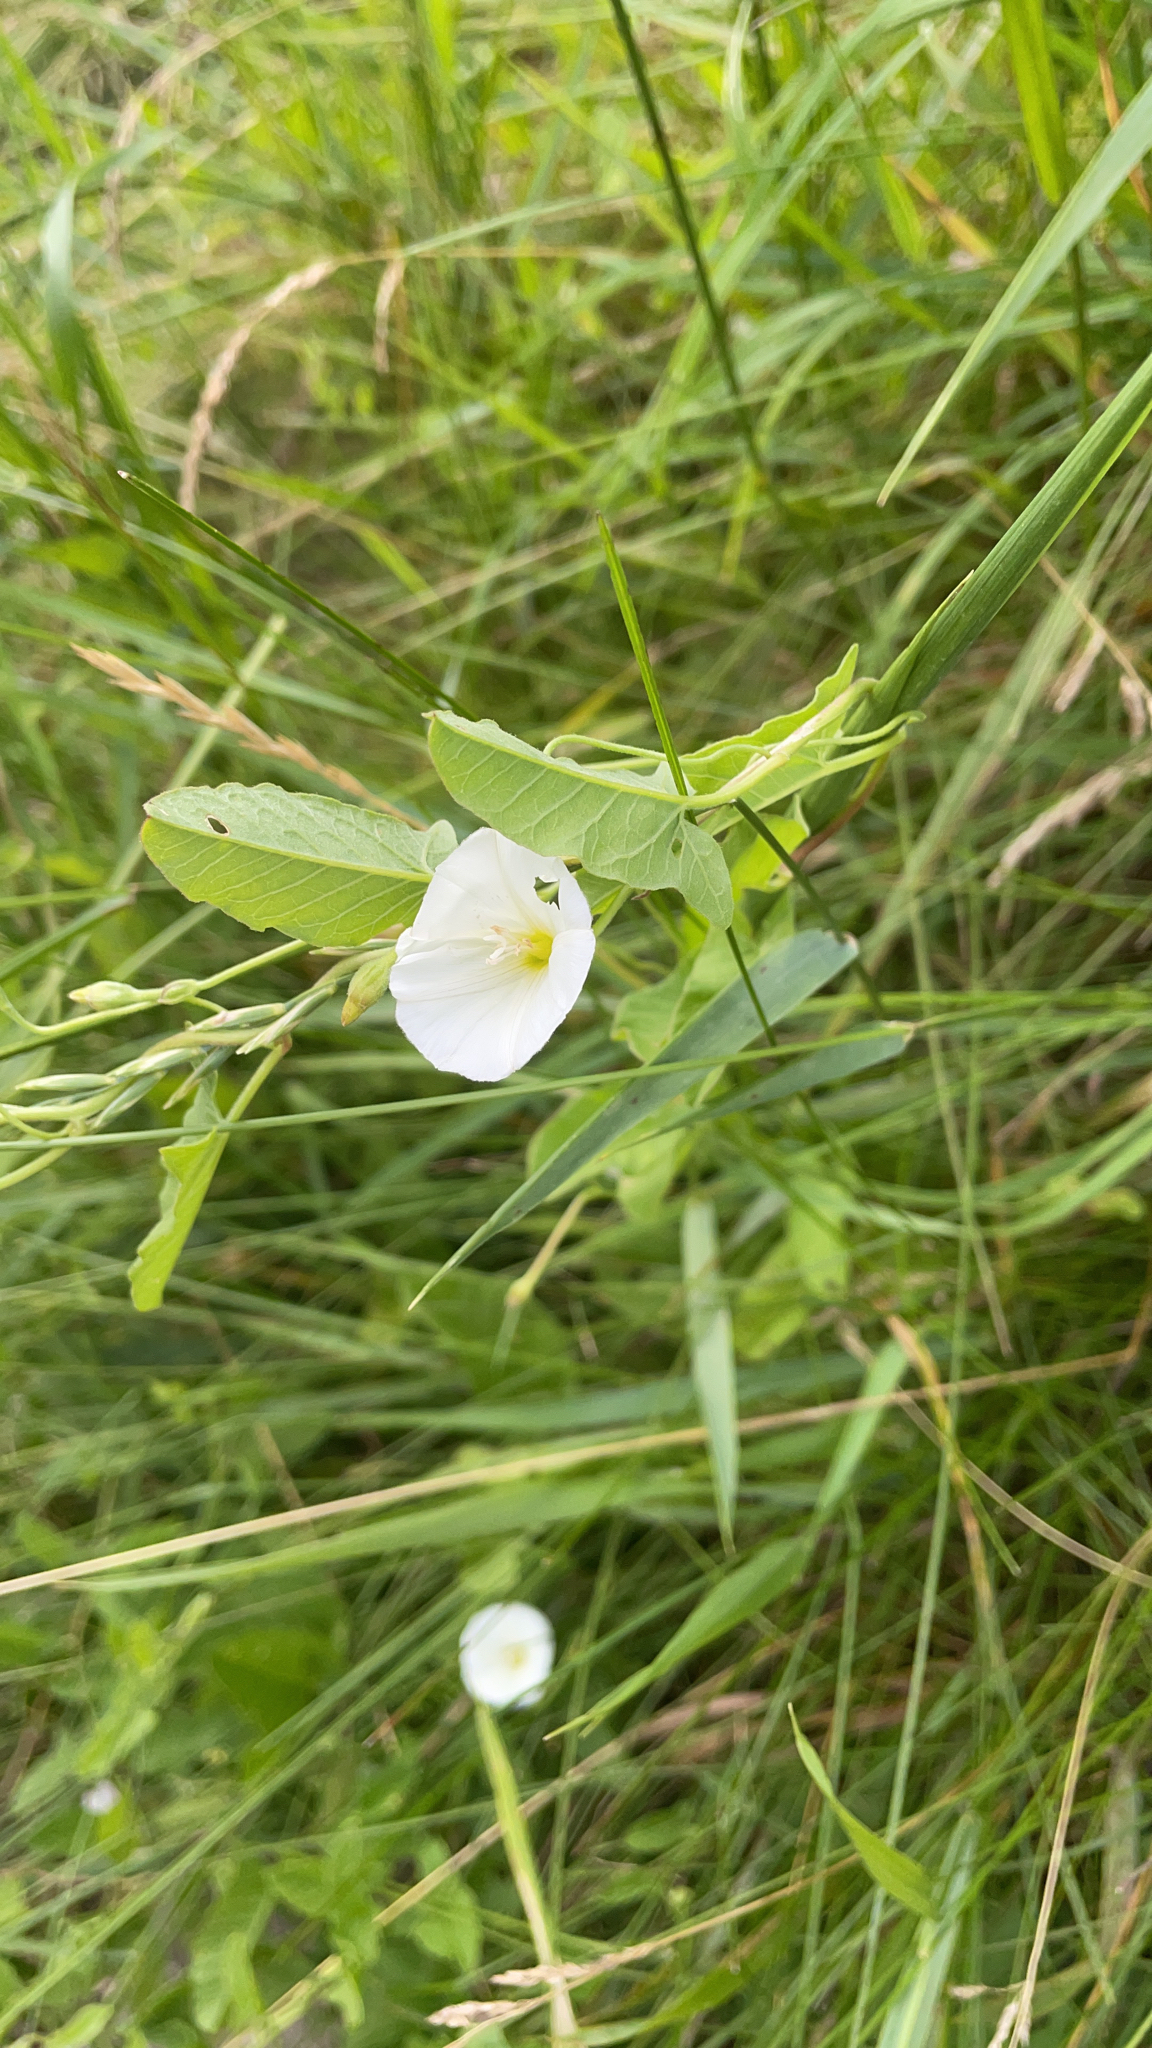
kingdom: Plantae
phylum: Tracheophyta
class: Magnoliopsida
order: Solanales
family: Convolvulaceae
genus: Convolvulus
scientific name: Convolvulus arvensis
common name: Field bindweed
